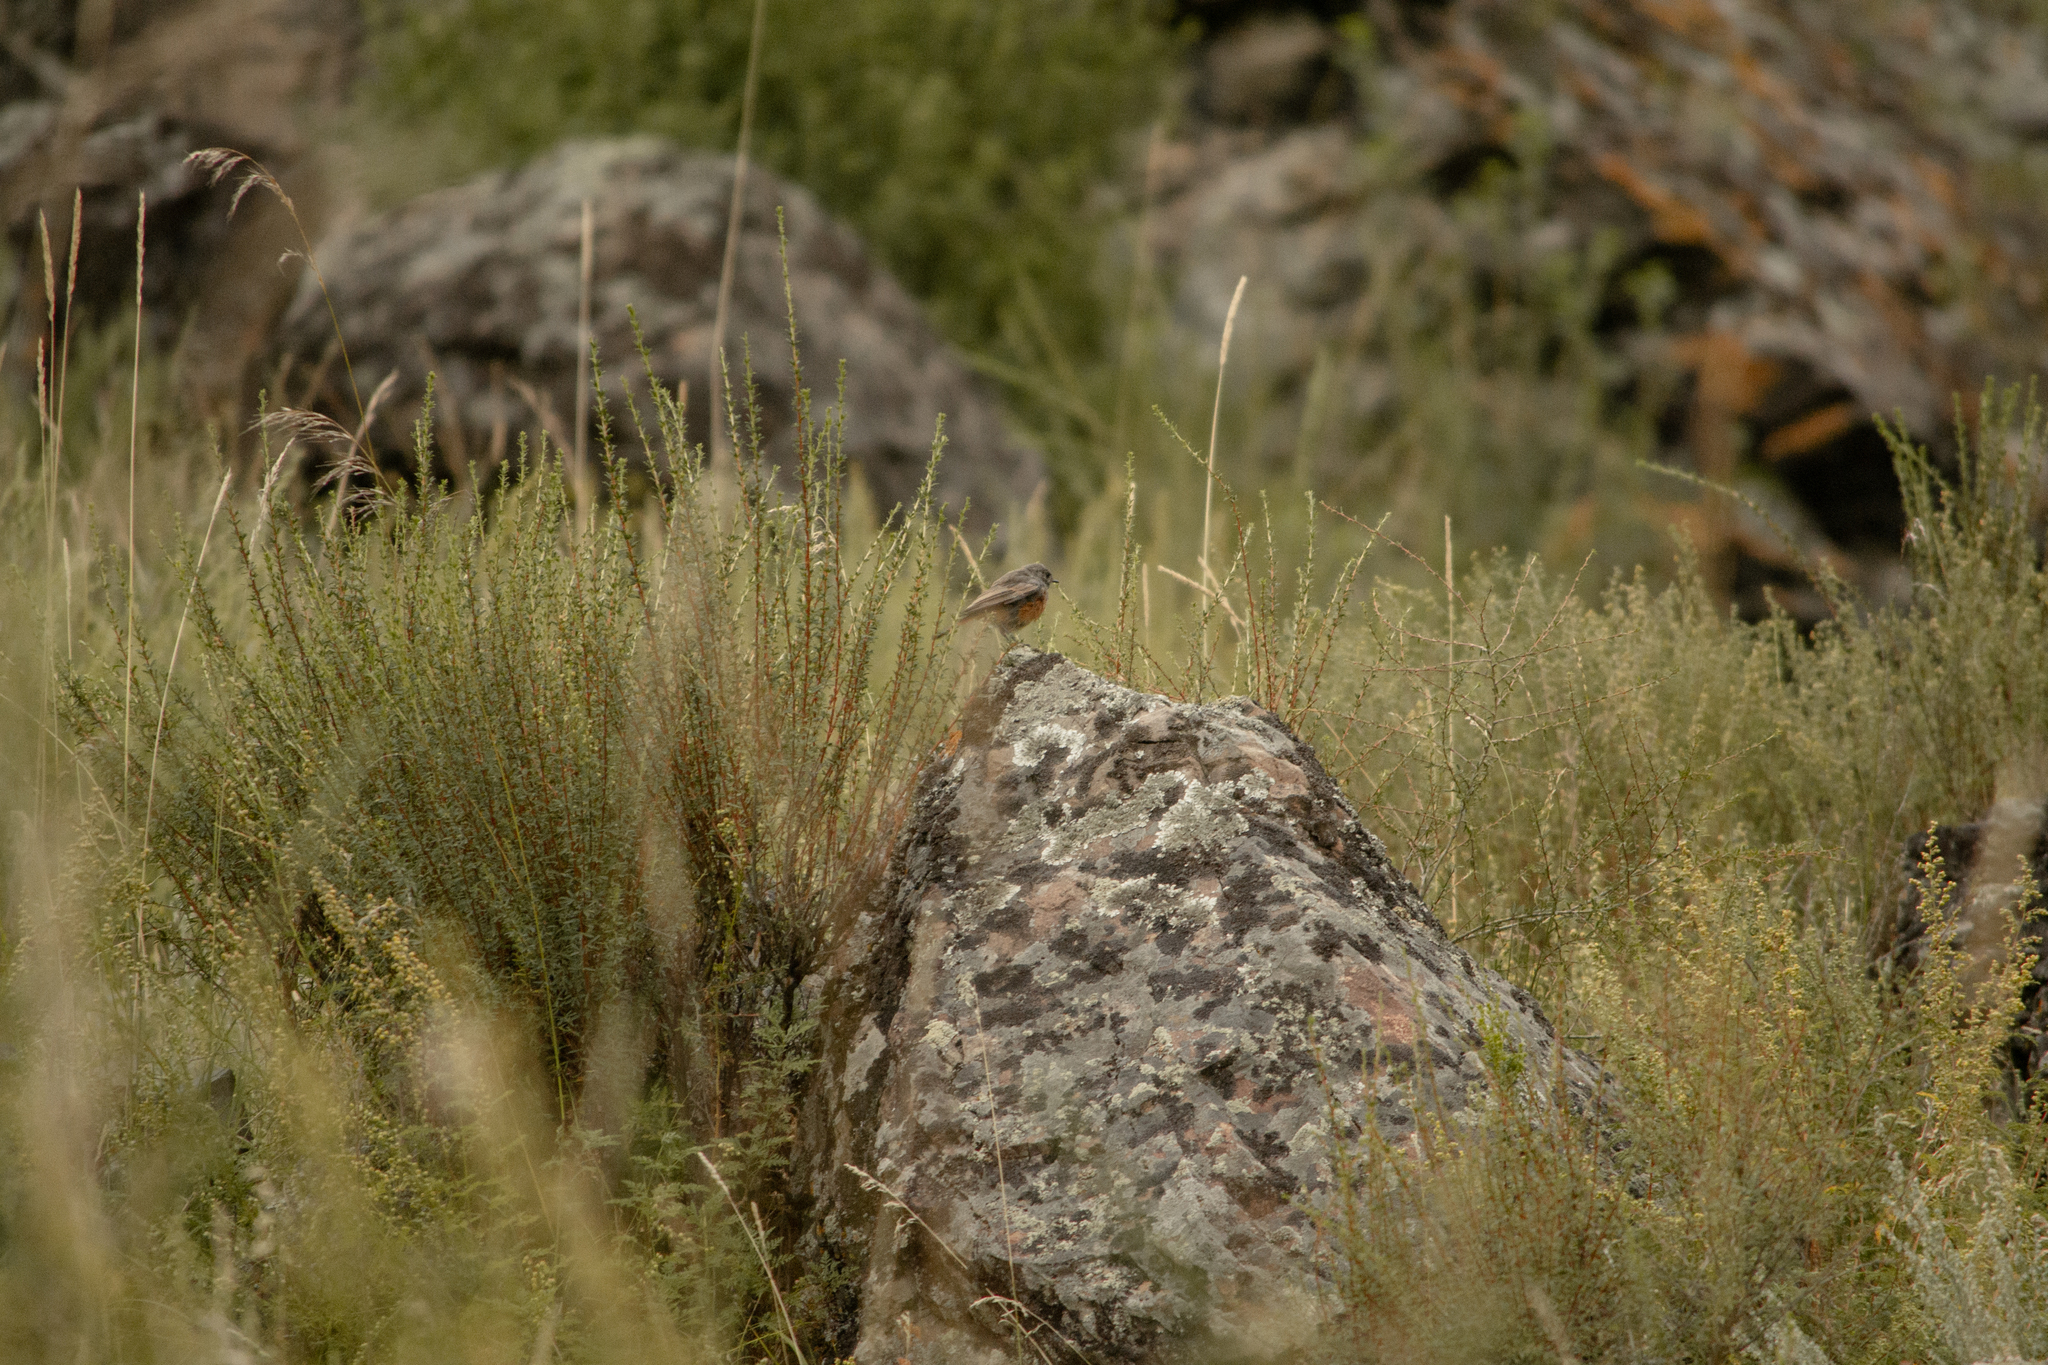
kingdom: Animalia
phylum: Chordata
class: Aves
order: Passeriformes
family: Muscicapidae
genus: Phoenicurus
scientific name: Phoenicurus ochruros
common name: Black redstart
